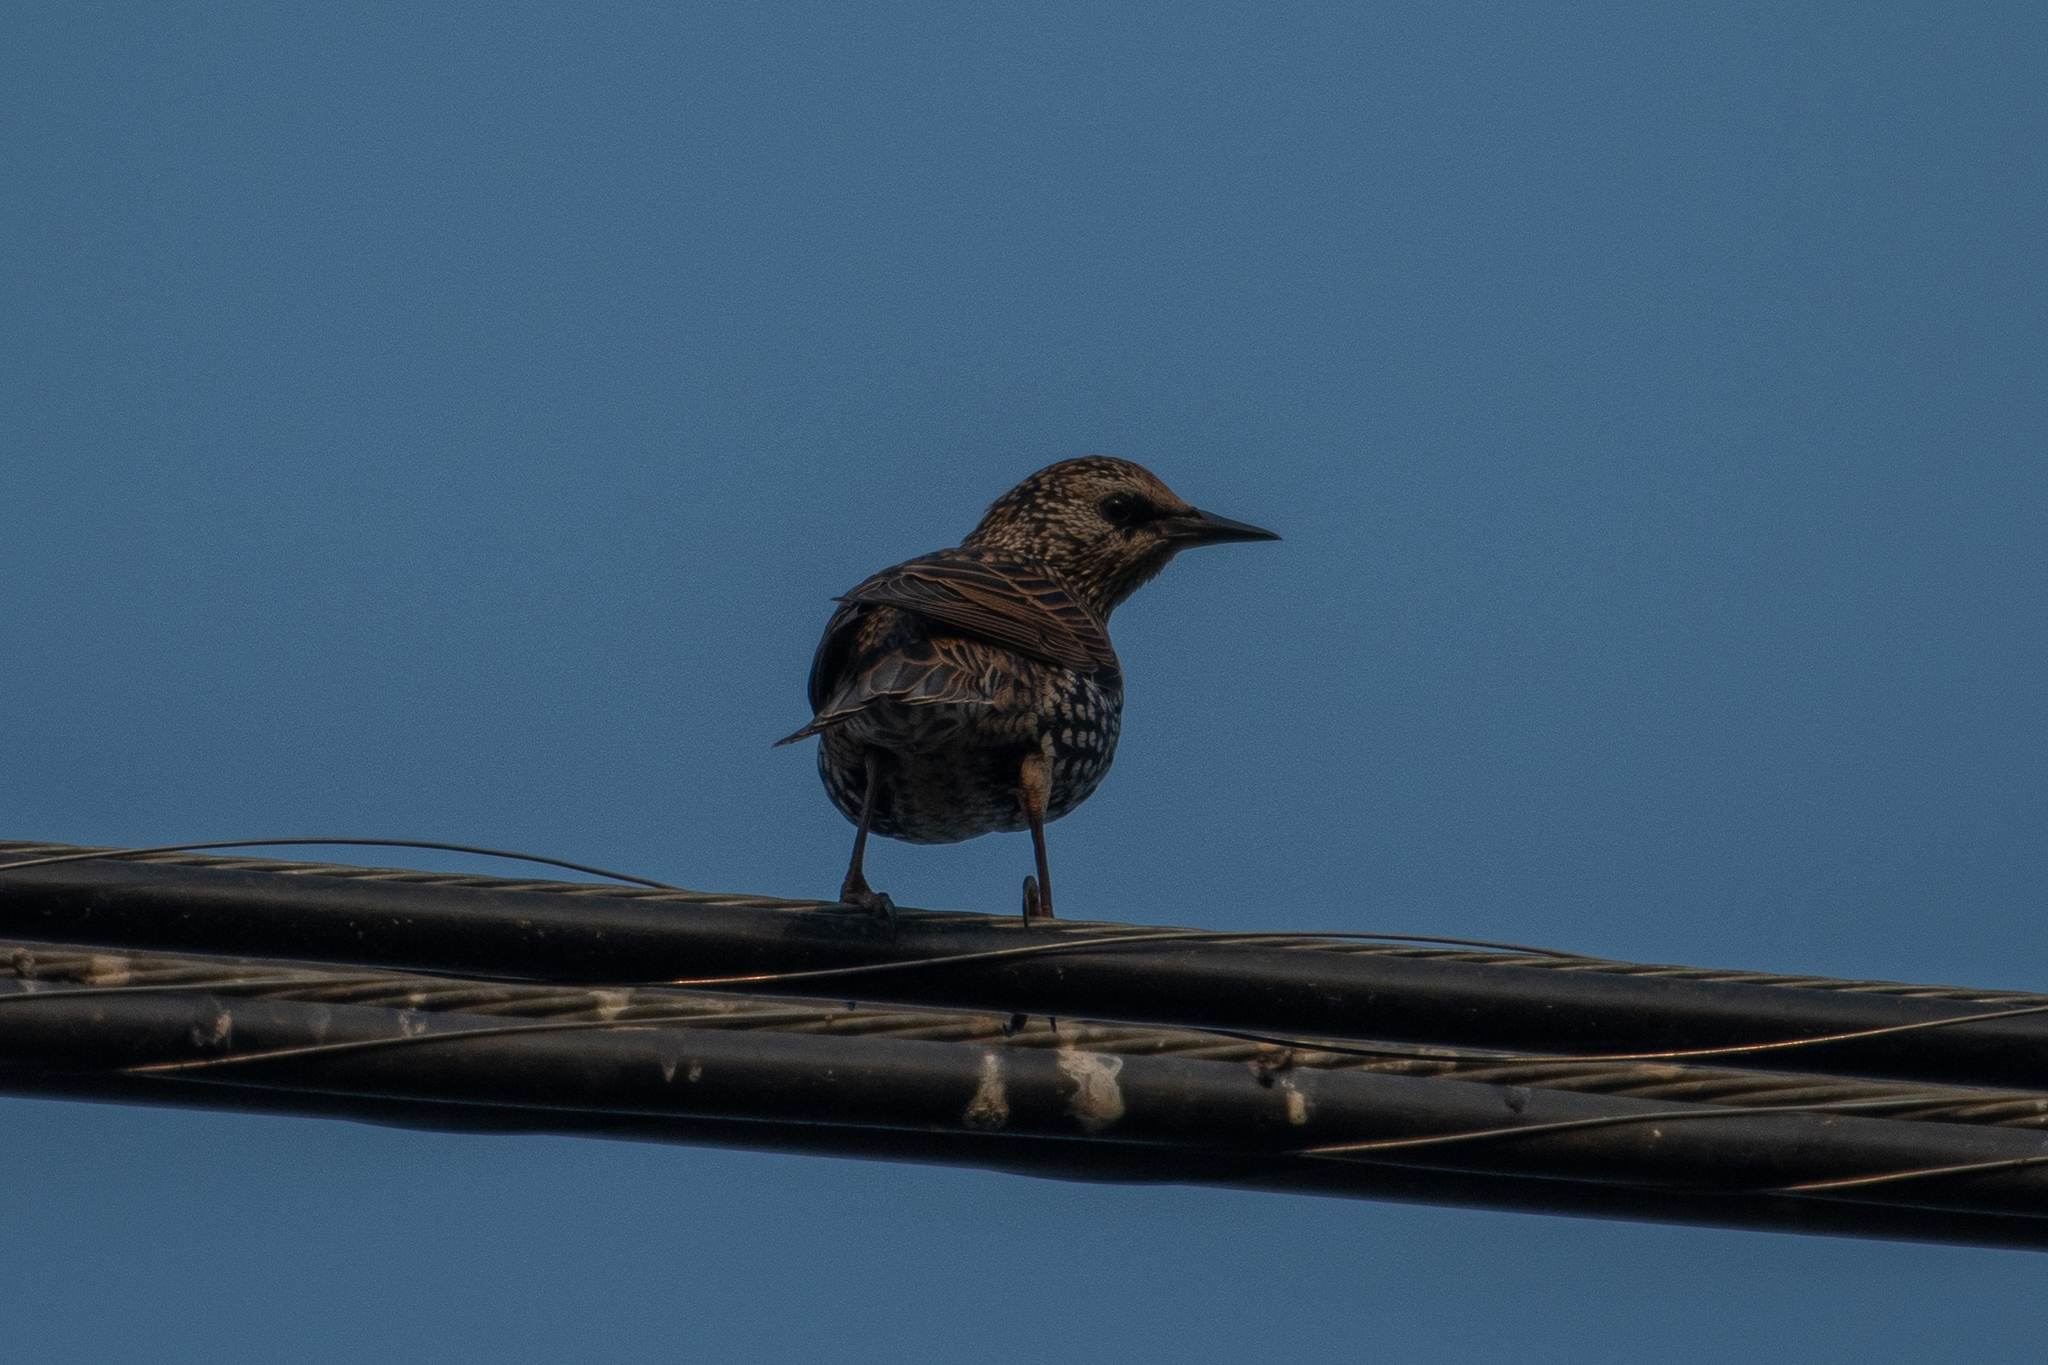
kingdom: Animalia
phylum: Chordata
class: Aves
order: Passeriformes
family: Sturnidae
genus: Sturnus
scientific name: Sturnus vulgaris
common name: Common starling
